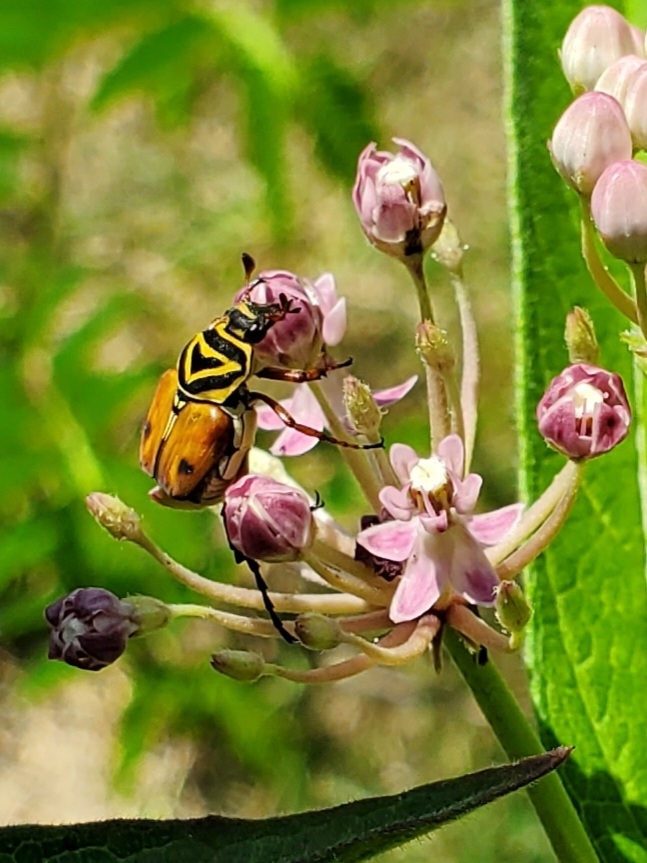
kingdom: Animalia
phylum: Arthropoda
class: Insecta
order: Coleoptera
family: Scarabaeidae
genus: Trigonopeltastes
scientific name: Trigonopeltastes delta
